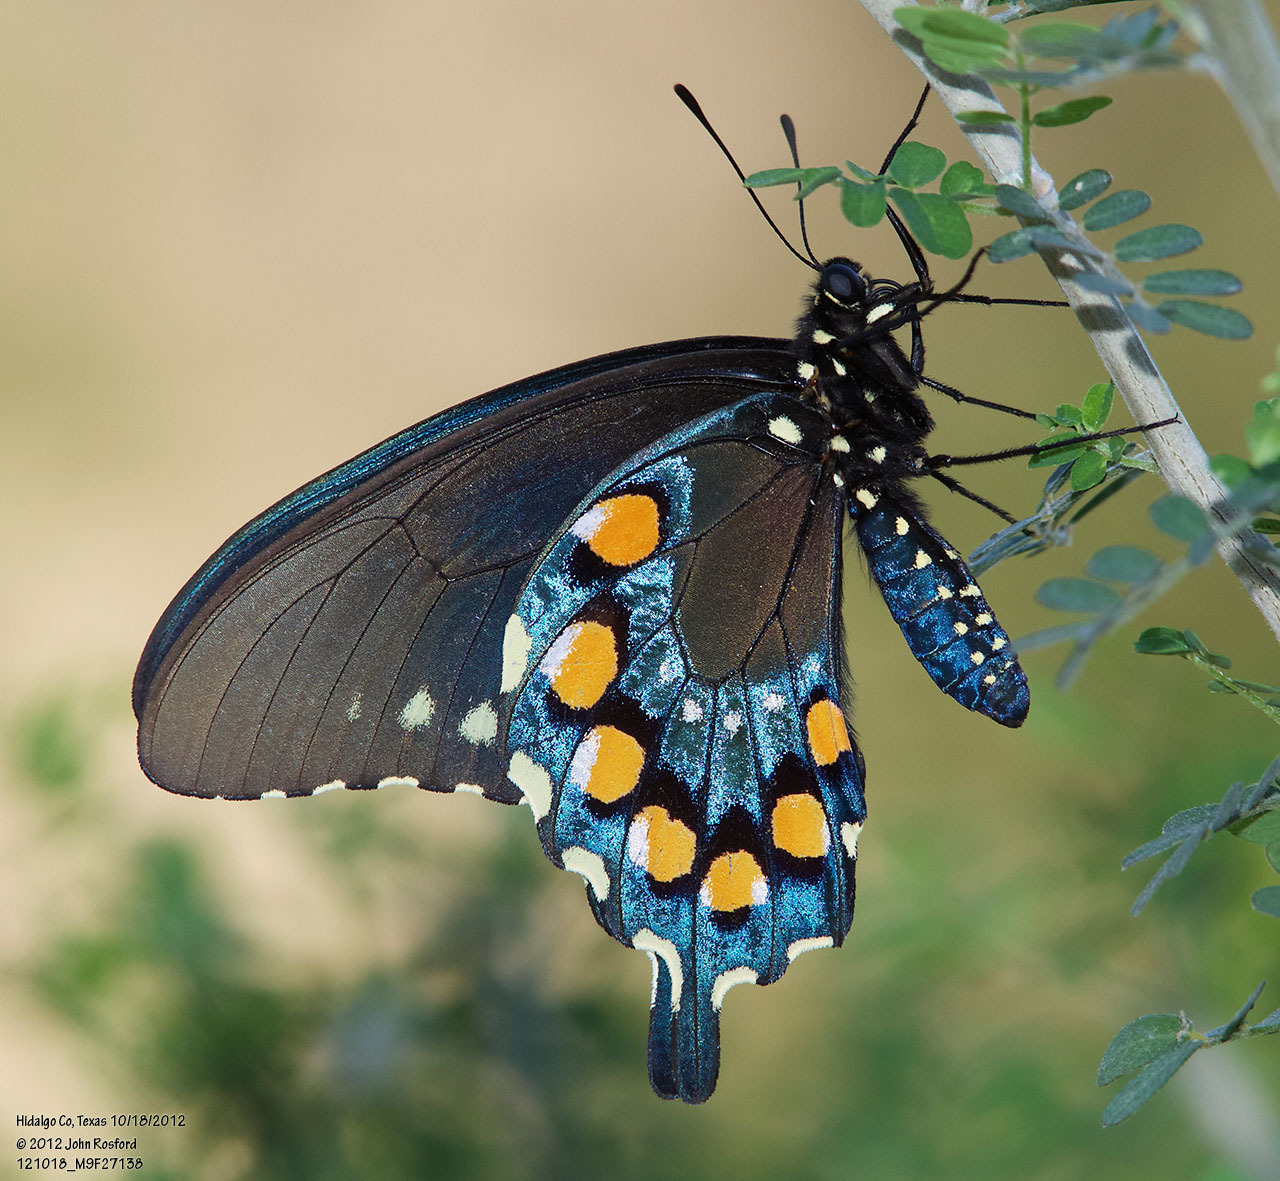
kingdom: Animalia
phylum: Arthropoda
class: Insecta
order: Lepidoptera
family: Papilionidae
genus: Battus
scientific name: Battus philenor
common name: Pipevine swallowtail
